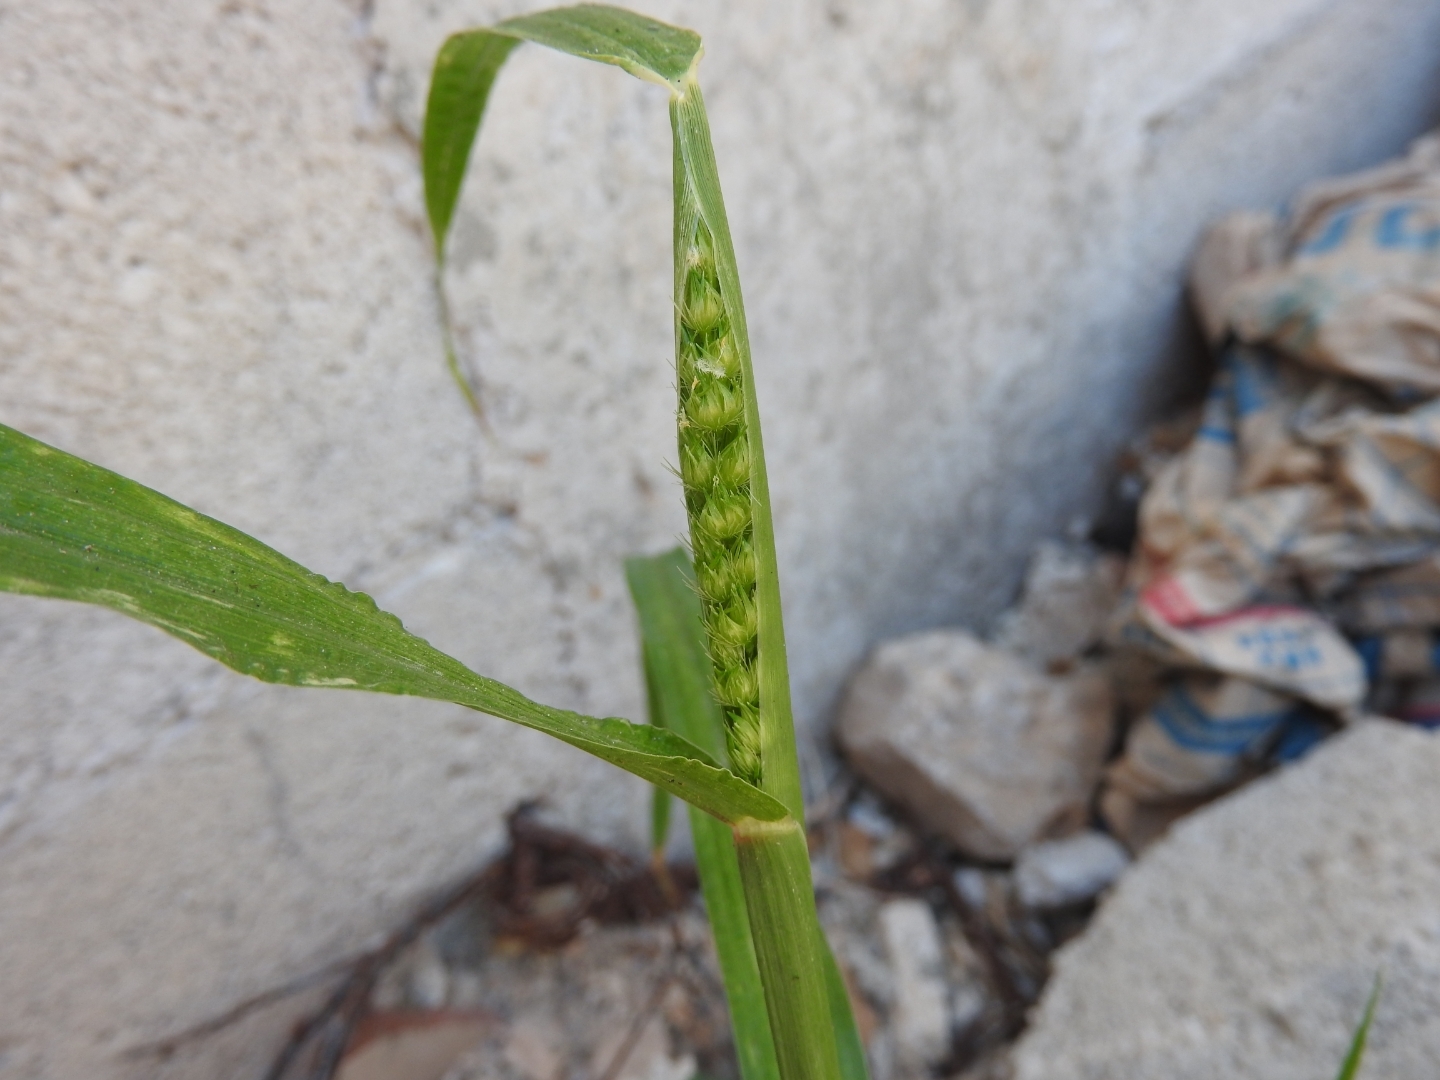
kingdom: Plantae
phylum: Tracheophyta
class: Liliopsida
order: Poales
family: Poaceae
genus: Anthephora
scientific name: Anthephora hermaphrodita
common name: Oldfield grass
